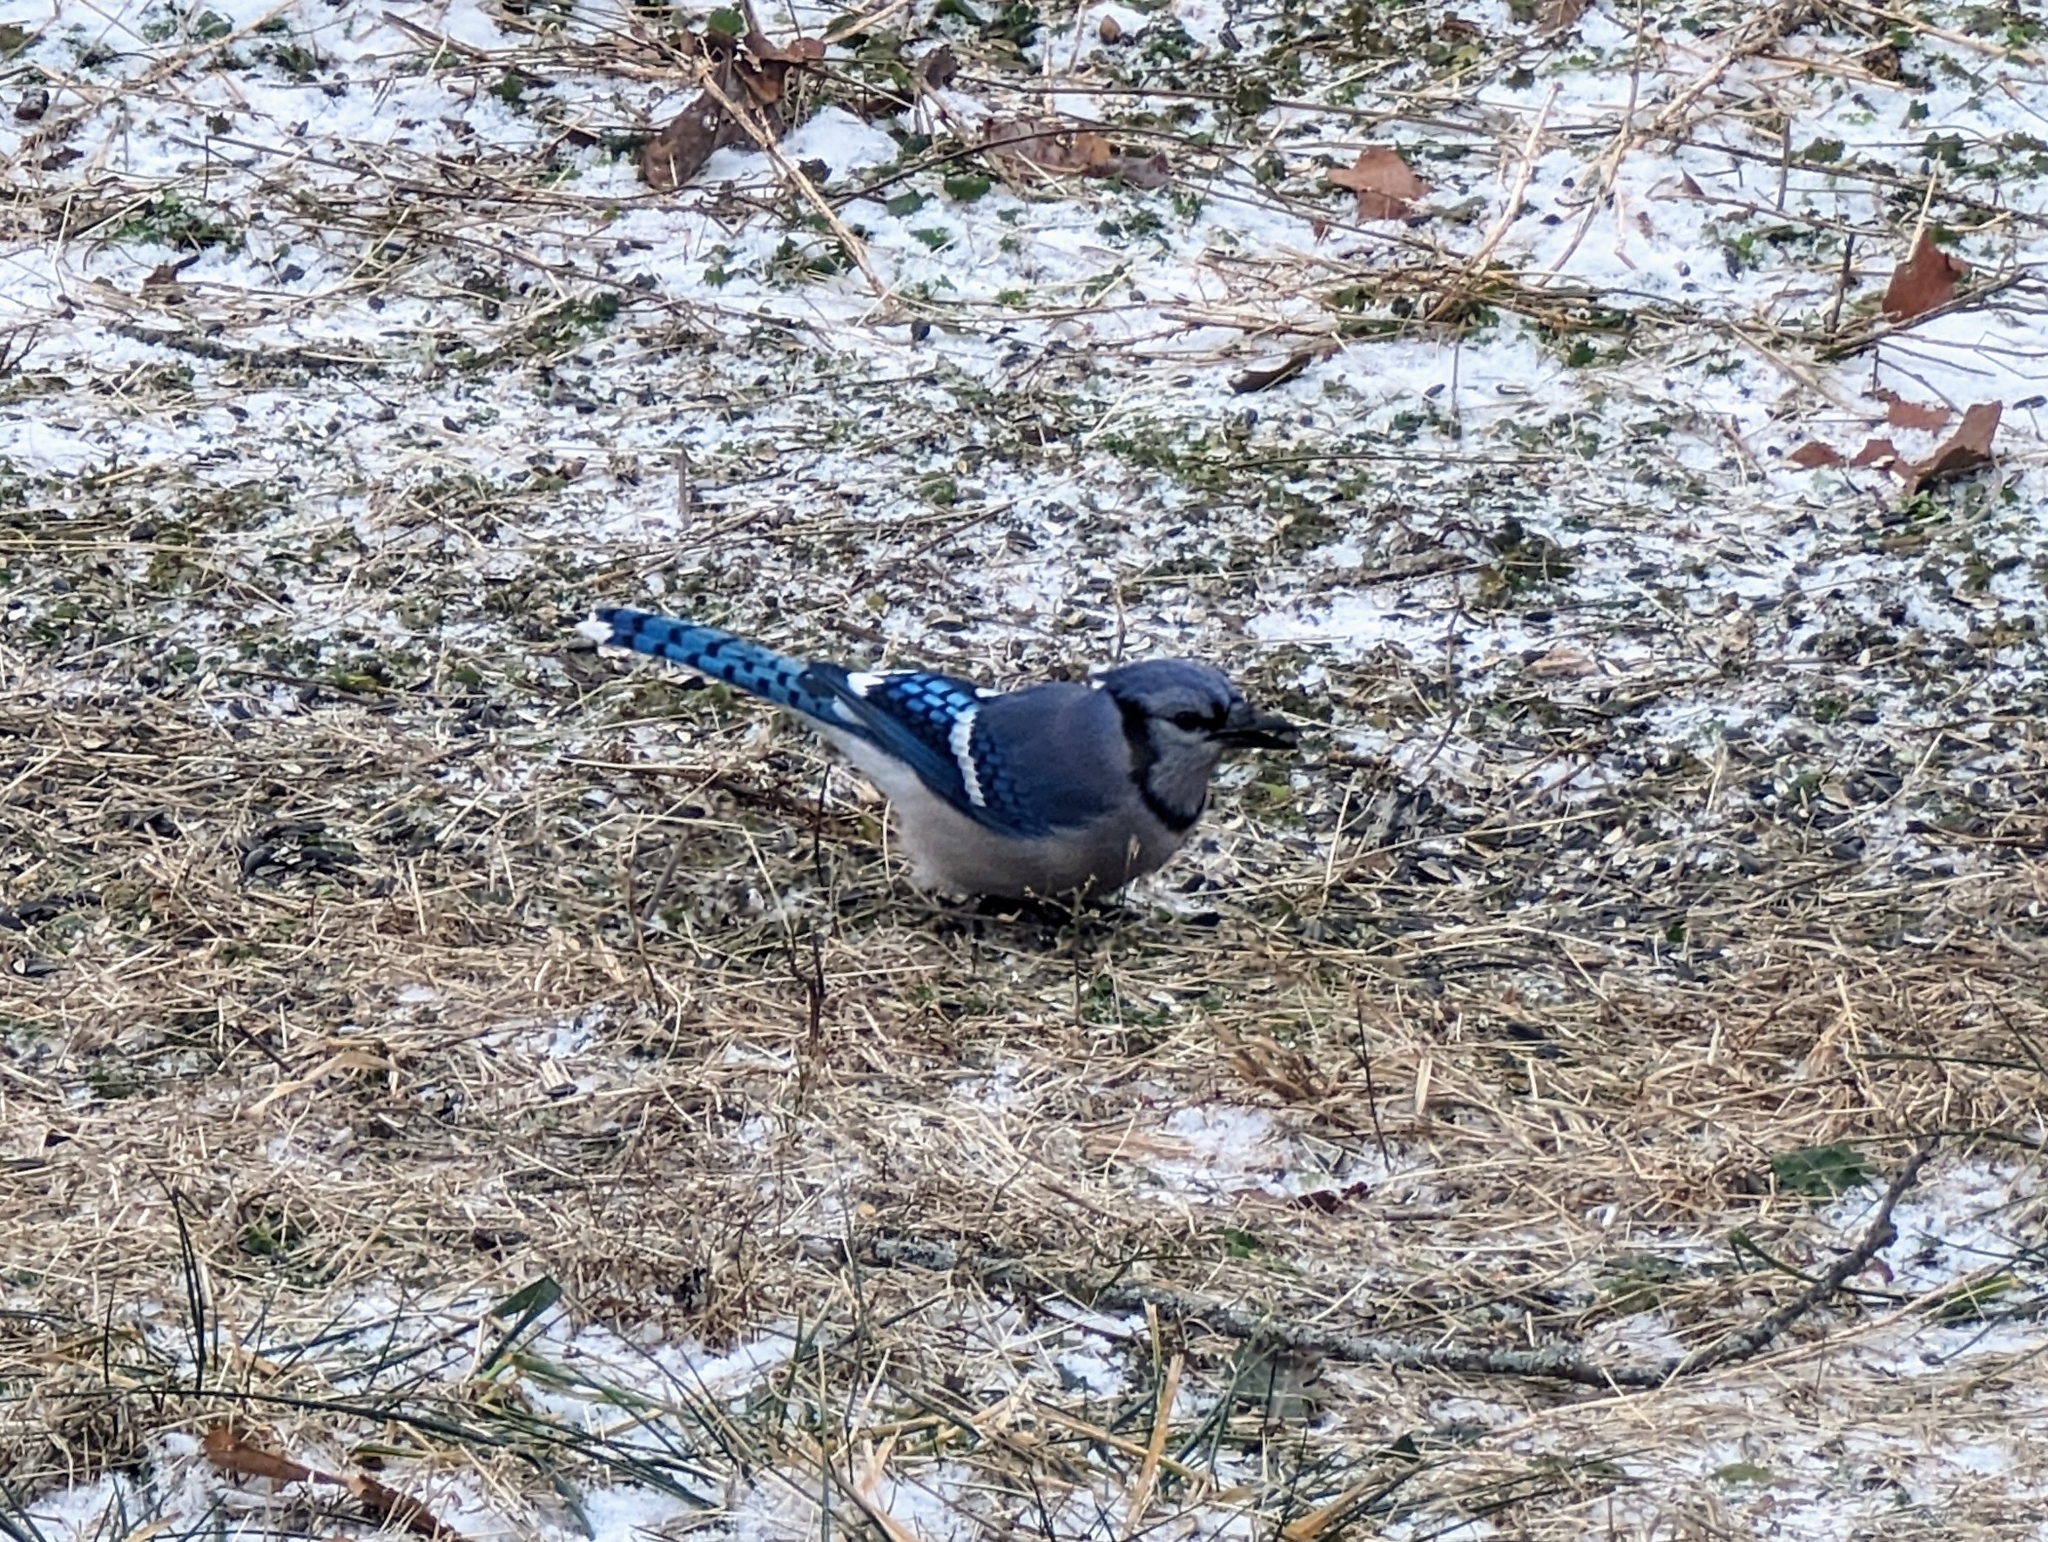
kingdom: Animalia
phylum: Chordata
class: Aves
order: Passeriformes
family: Corvidae
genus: Cyanocitta
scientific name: Cyanocitta cristata
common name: Blue jay
